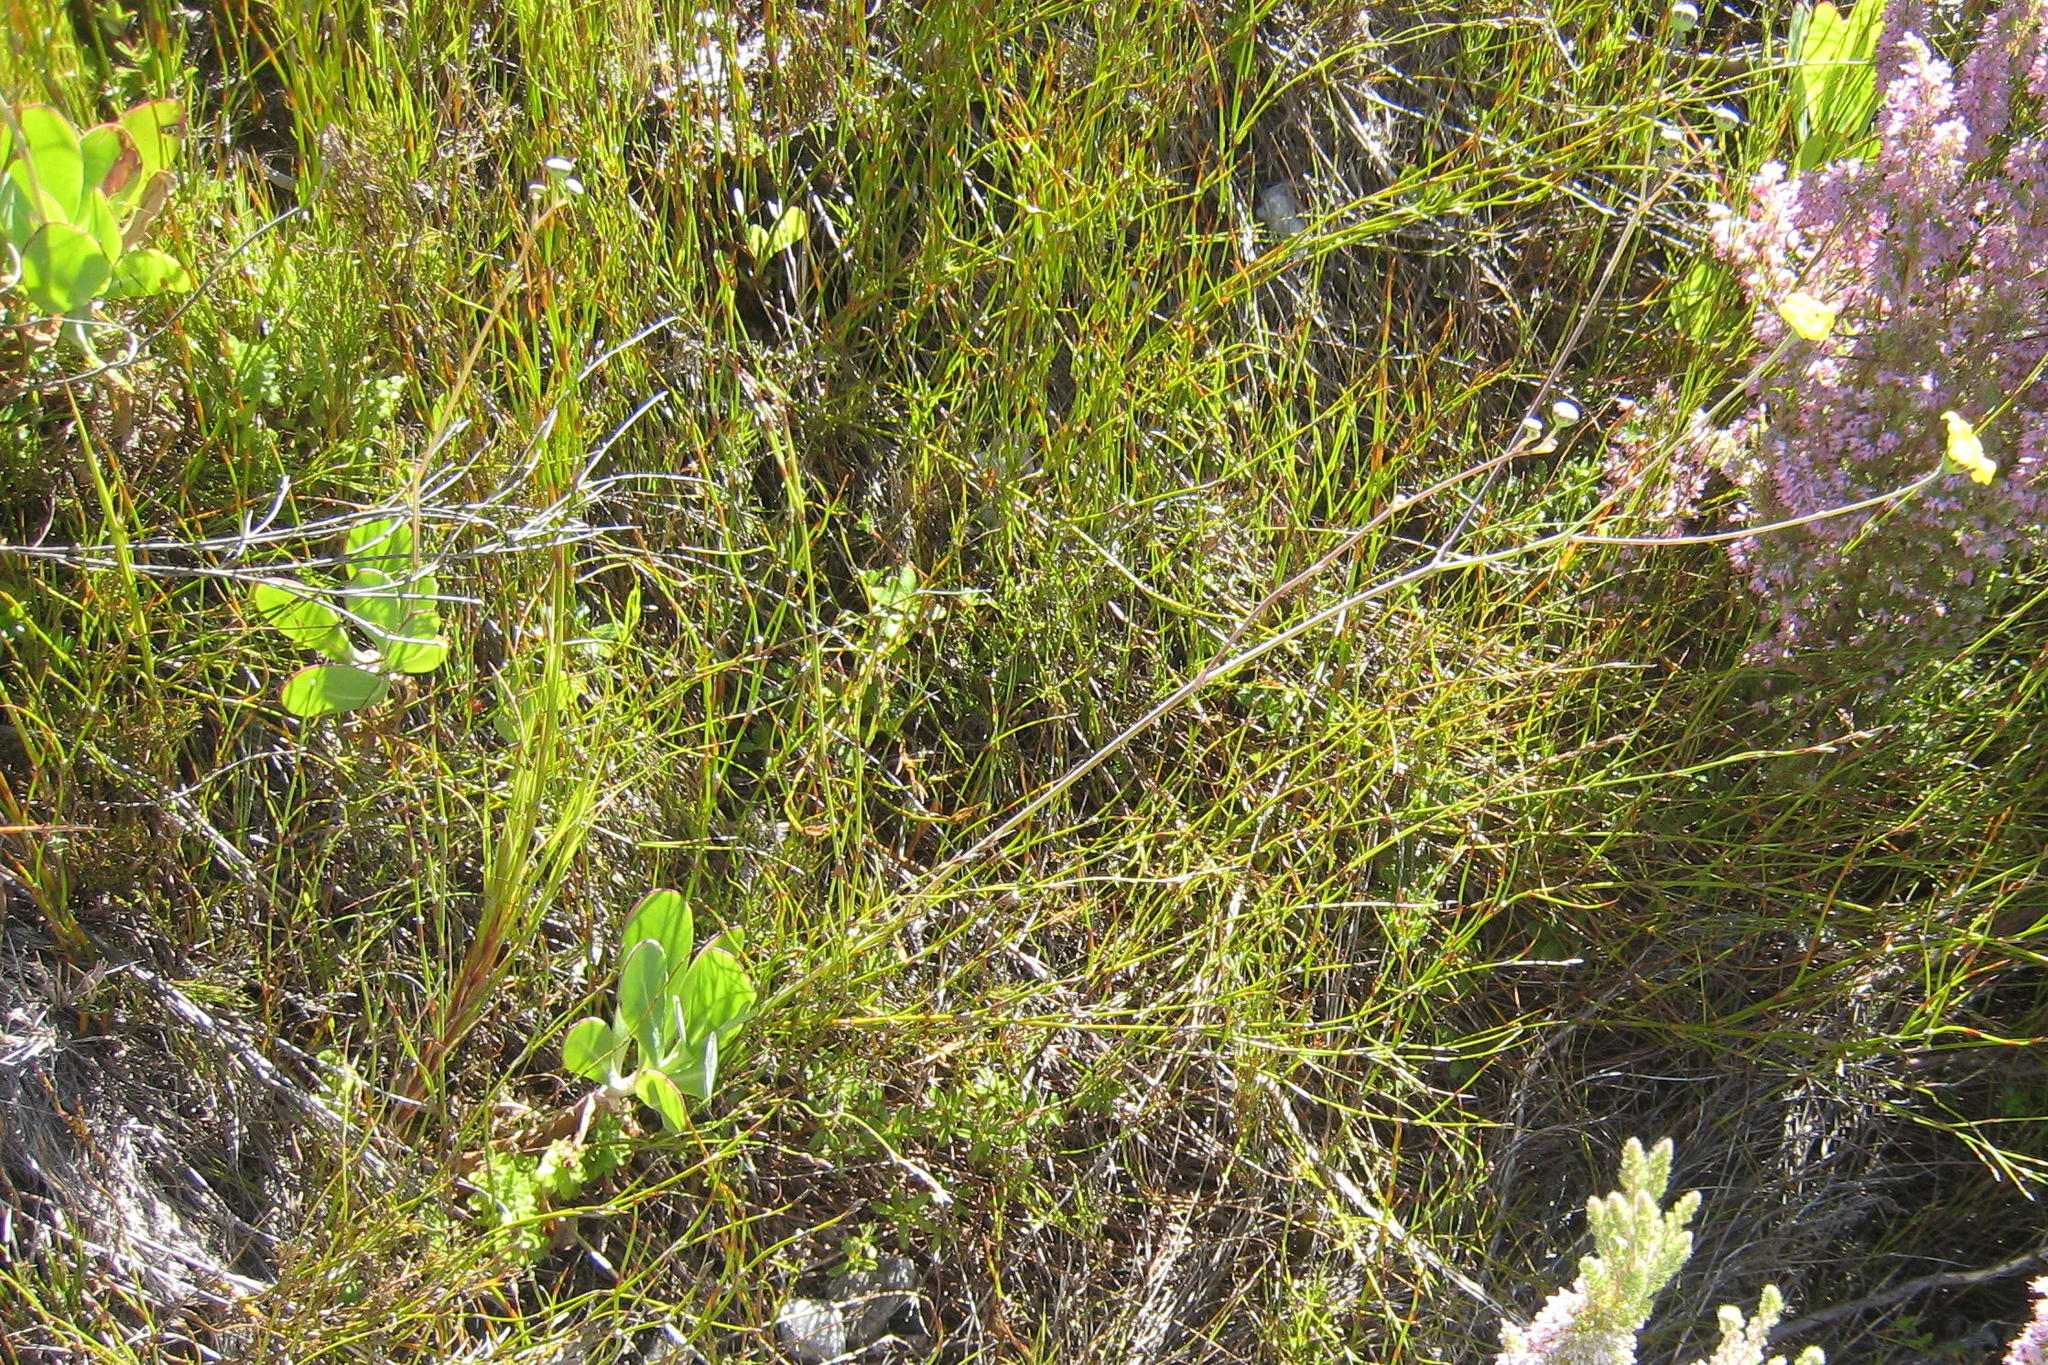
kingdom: Plantae
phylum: Tracheophyta
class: Magnoliopsida
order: Asterales
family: Asteraceae
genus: Othonna
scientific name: Othonna quinquedentata
